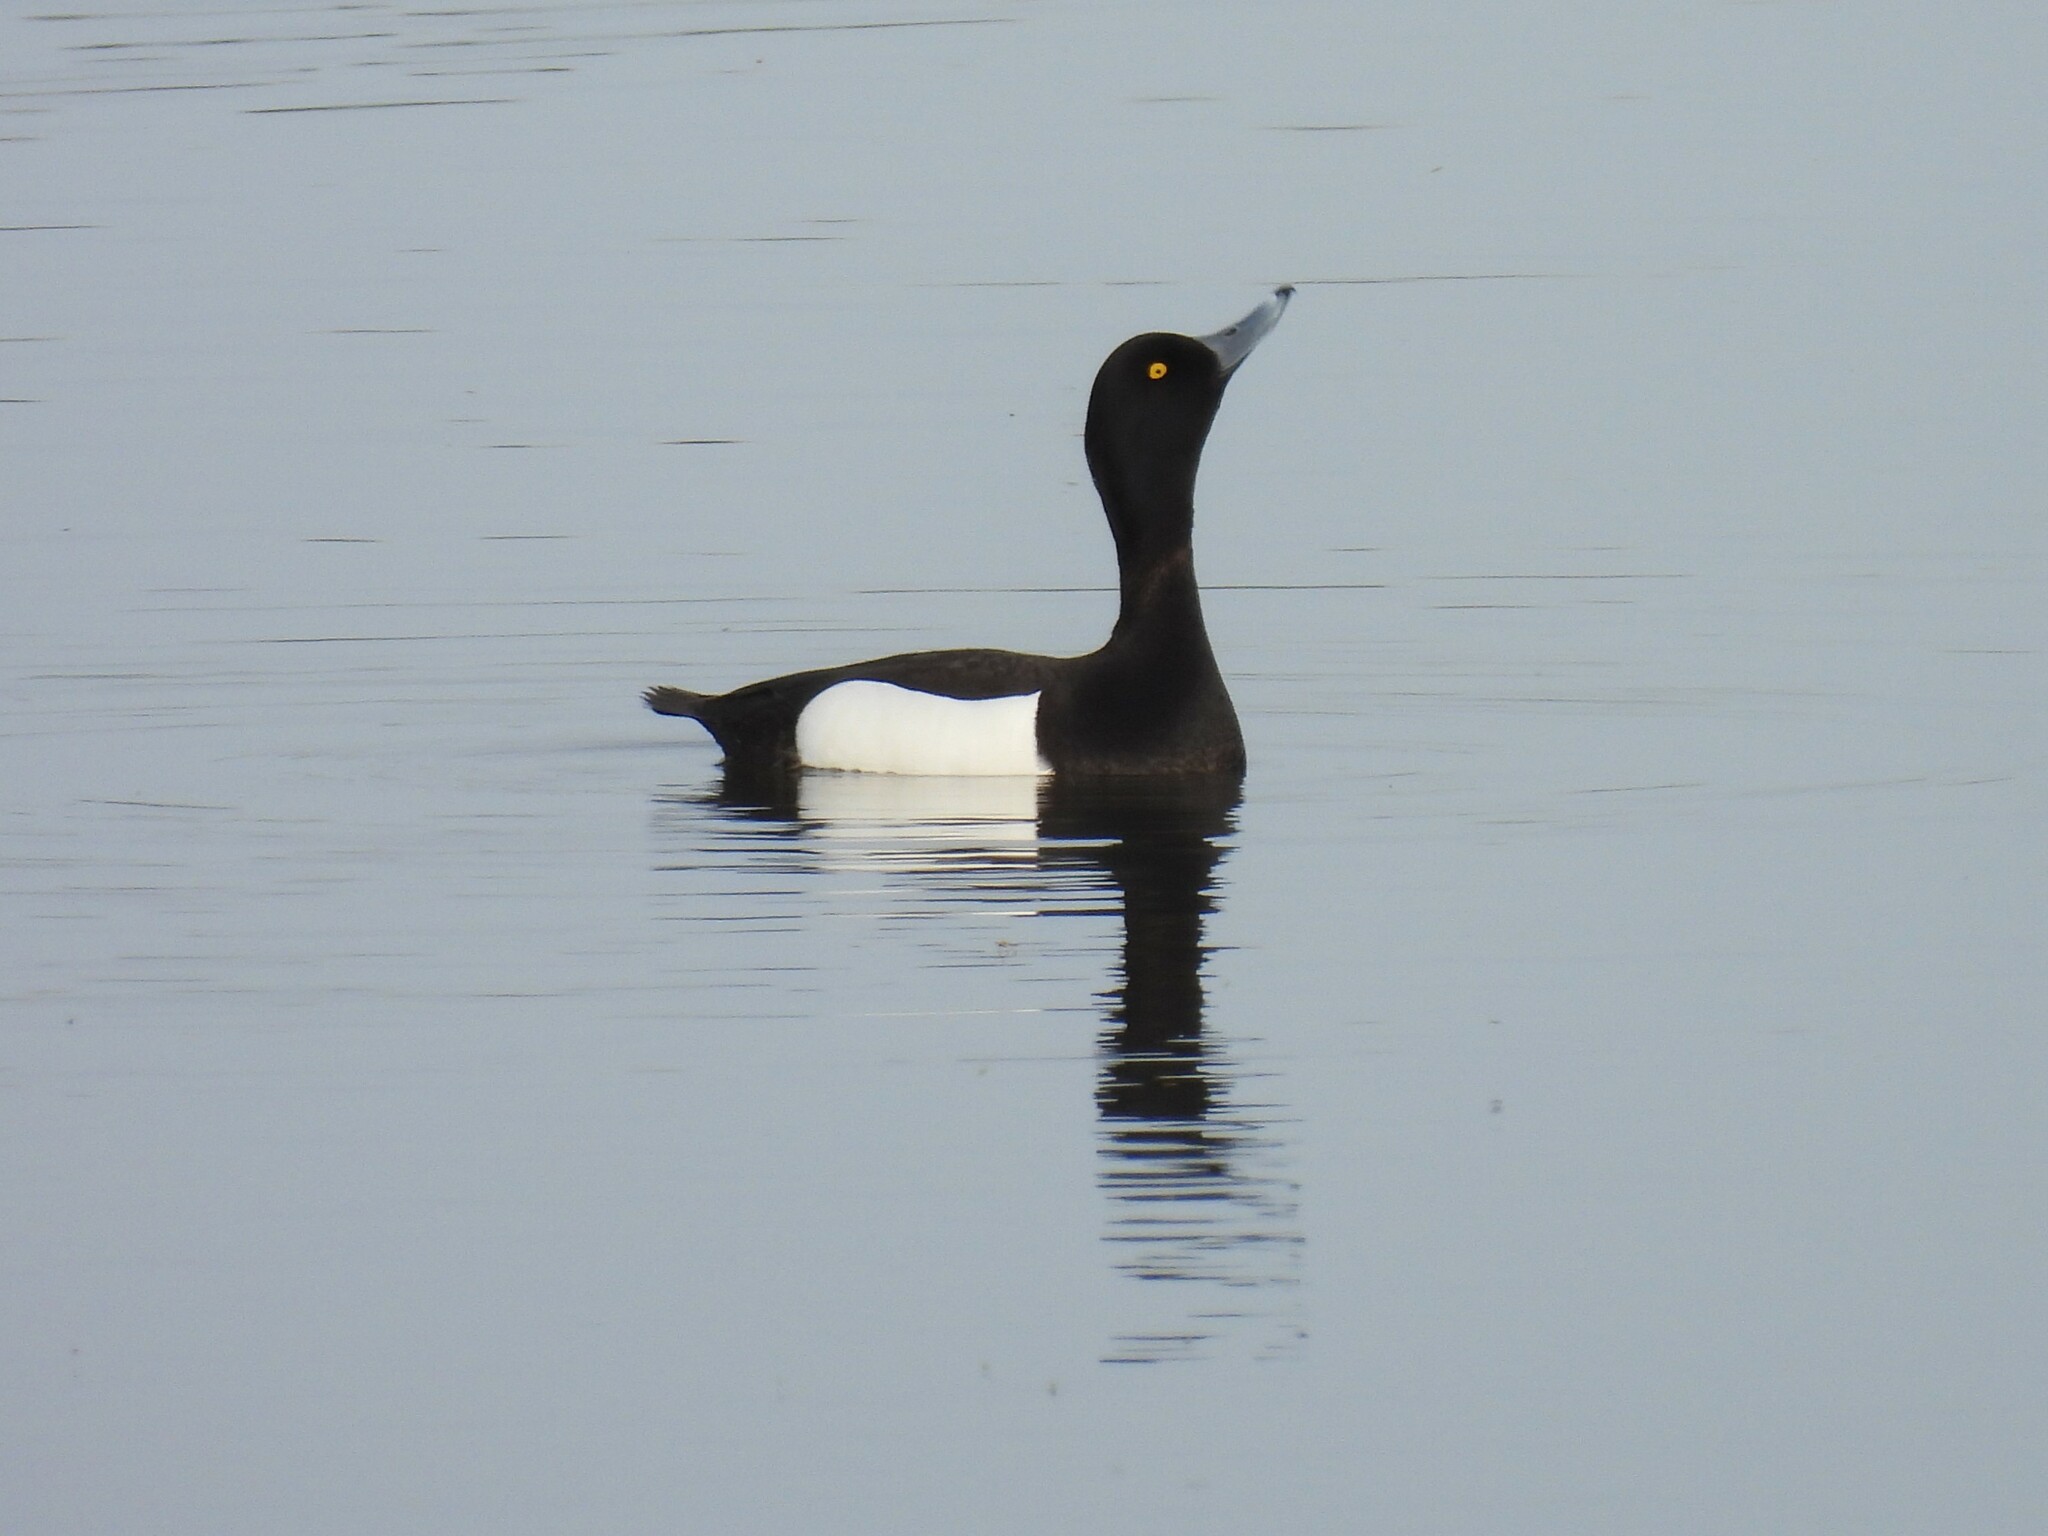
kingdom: Animalia
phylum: Chordata
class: Aves
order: Anseriformes
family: Anatidae
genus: Aythya
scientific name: Aythya fuligula
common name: Tufted duck
